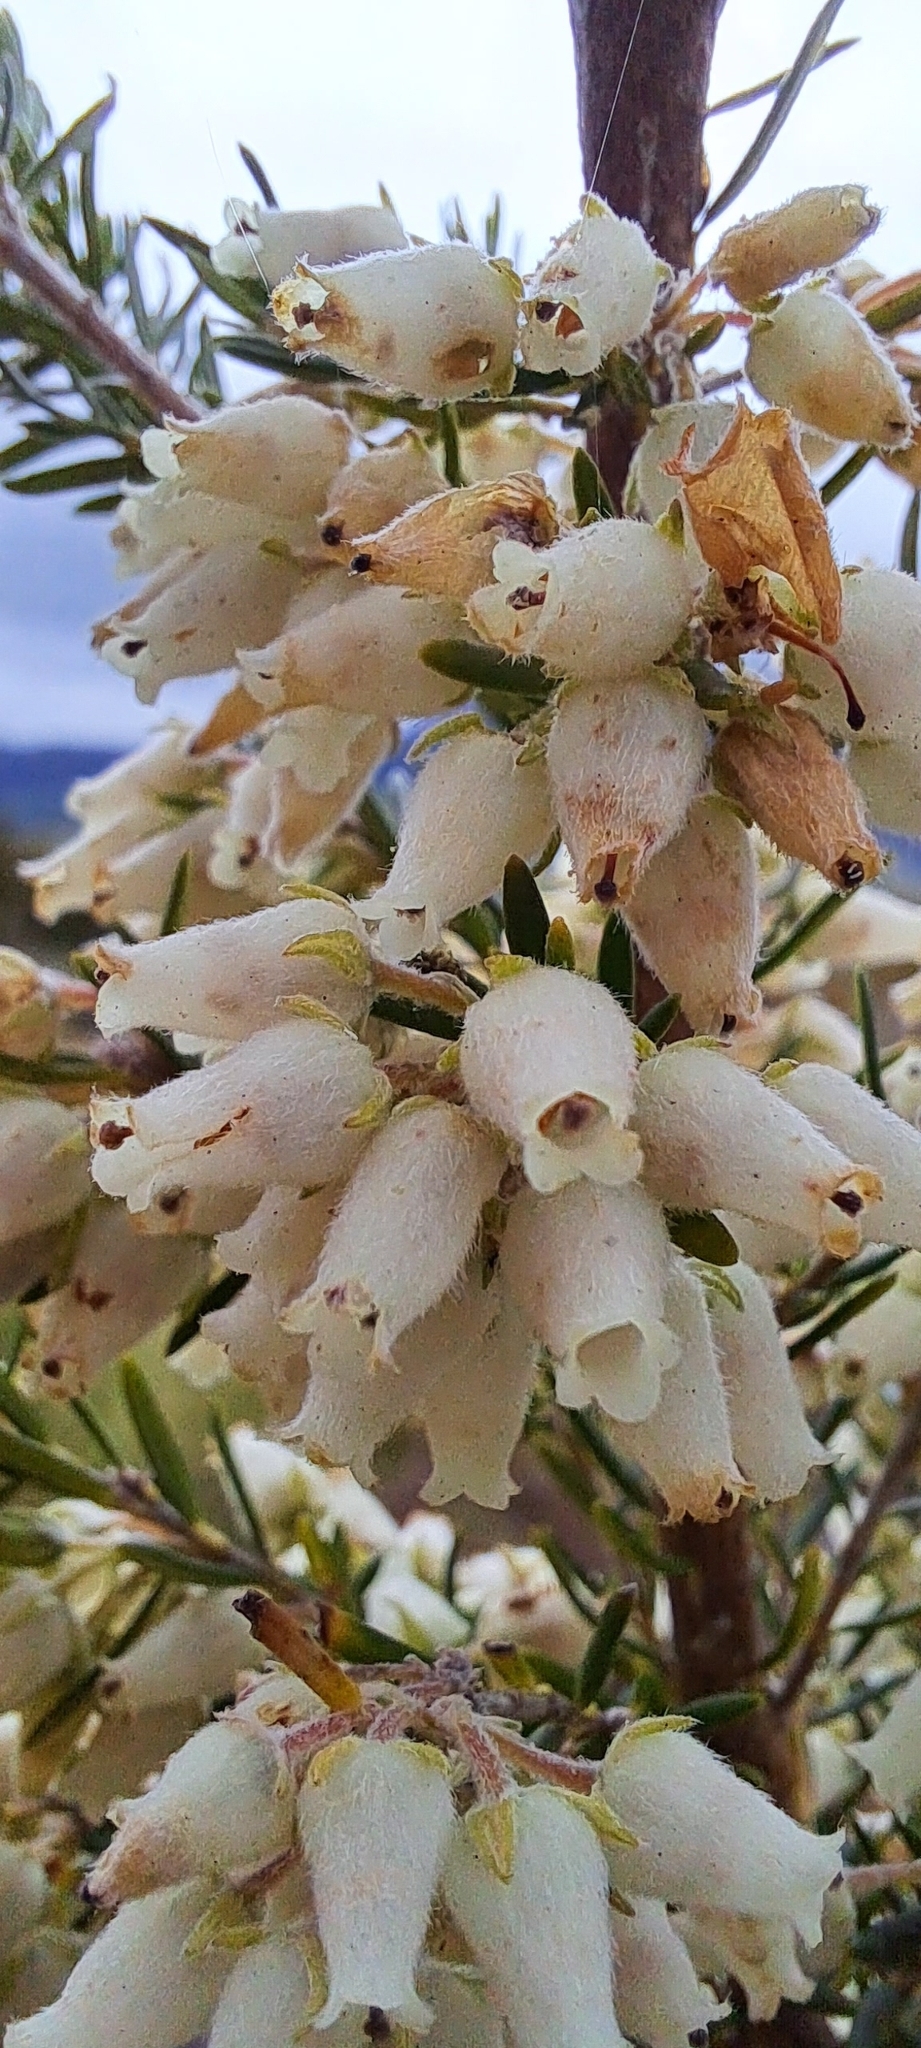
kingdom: Plantae
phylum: Tracheophyta
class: Magnoliopsida
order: Ericales
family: Ericaceae
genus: Erica
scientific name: Erica caffra
